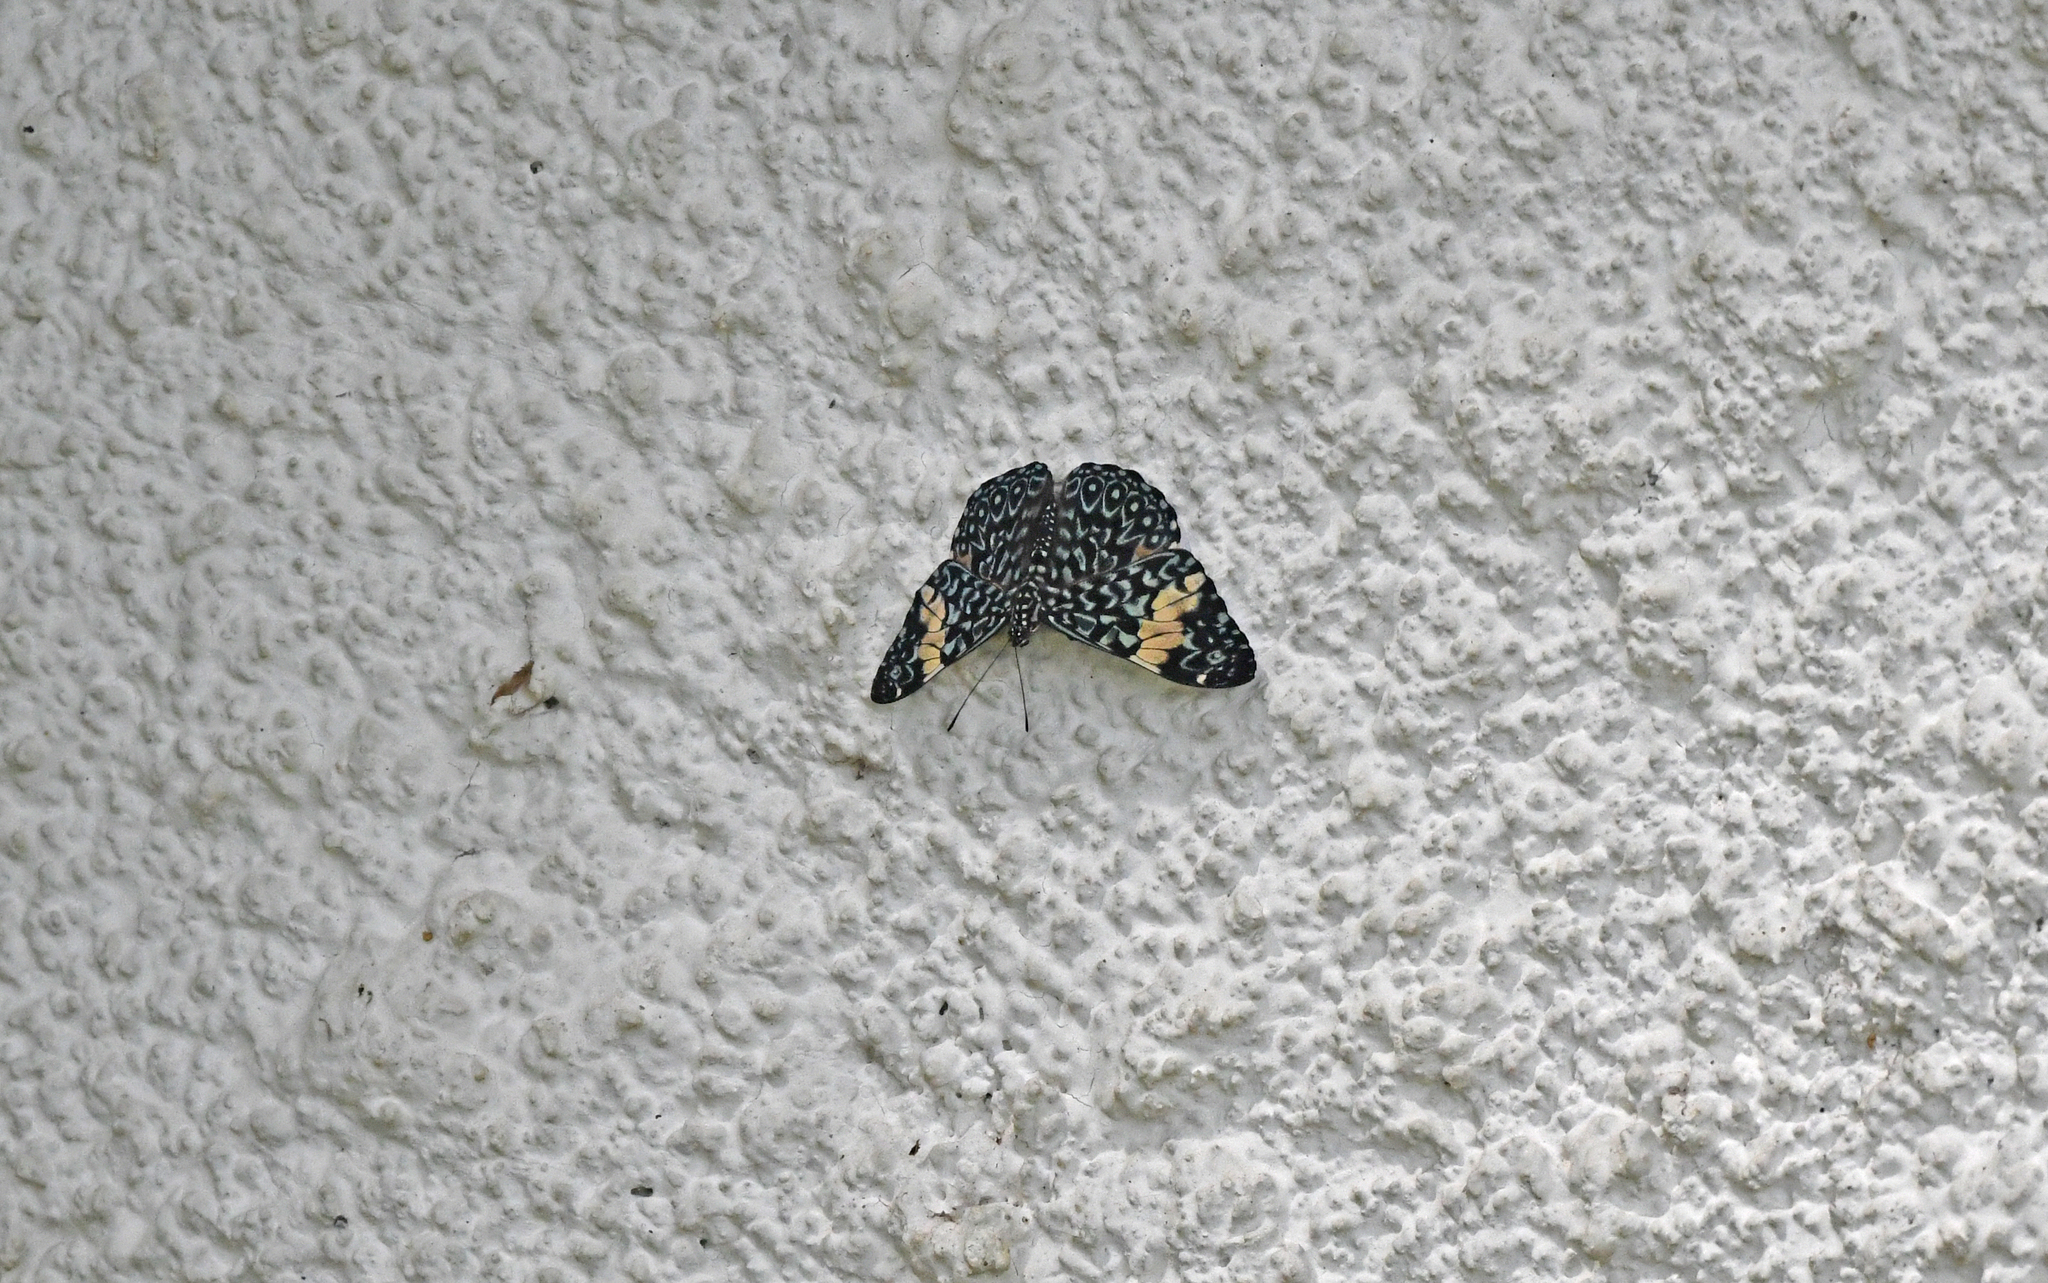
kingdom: Animalia
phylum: Arthropoda
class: Insecta
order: Lepidoptera
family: Nymphalidae
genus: Hamadryas
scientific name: Hamadryas amphinome
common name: Red cracker
